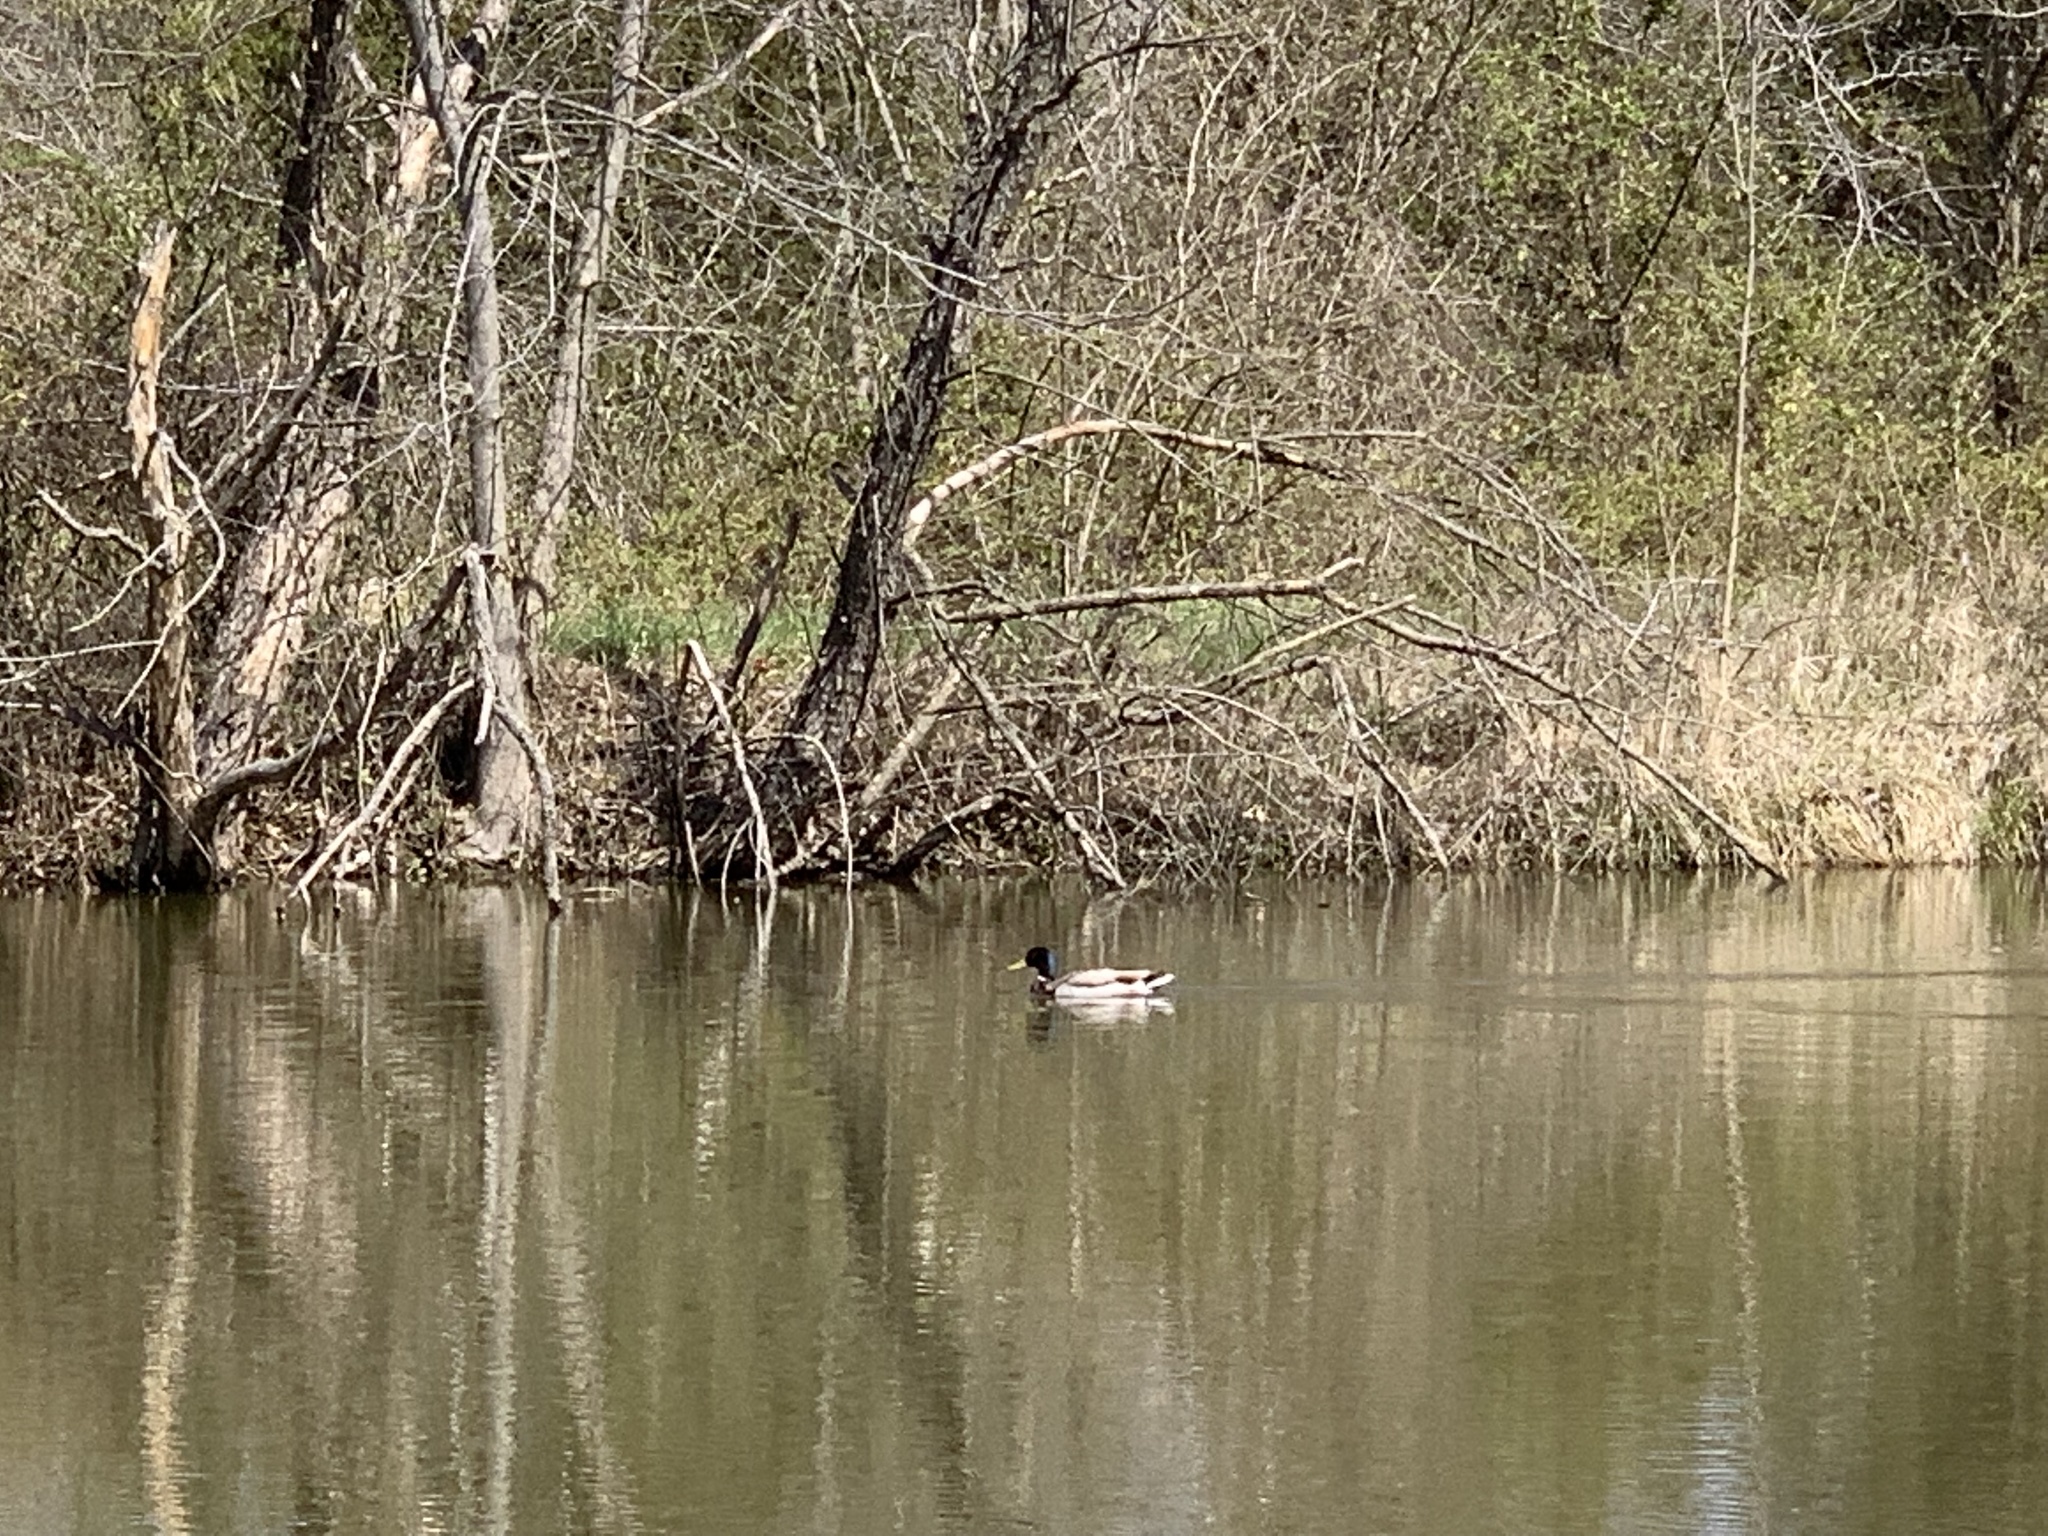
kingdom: Animalia
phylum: Chordata
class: Aves
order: Anseriformes
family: Anatidae
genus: Anas
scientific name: Anas platyrhynchos
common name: Mallard
